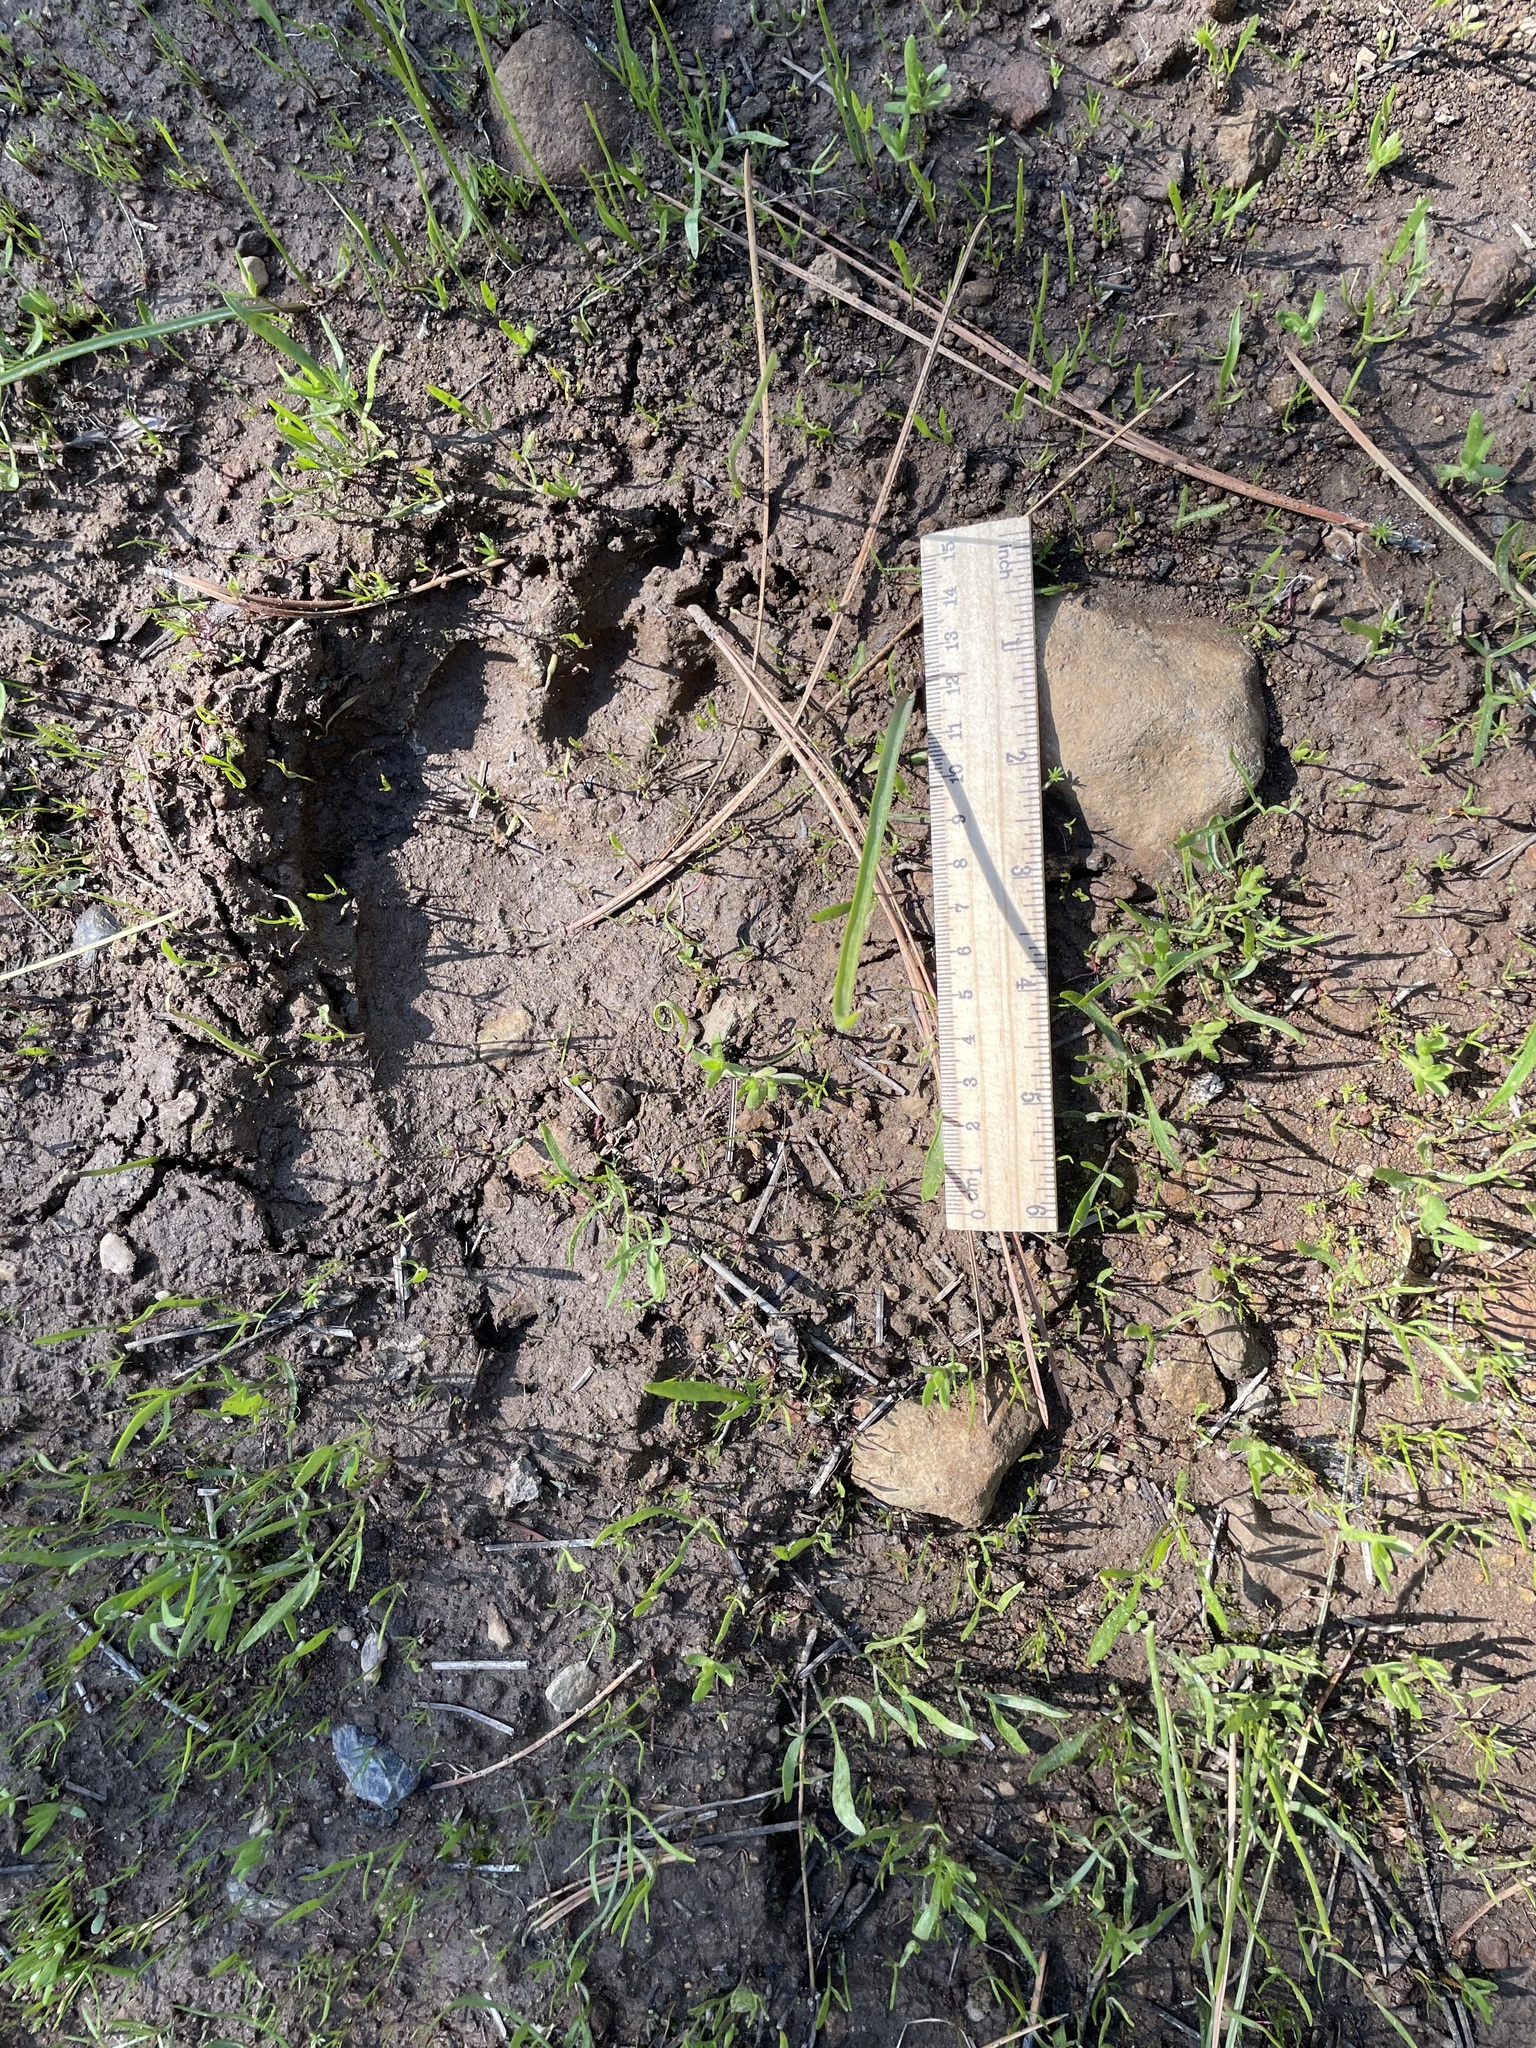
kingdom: Animalia
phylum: Chordata
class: Mammalia
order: Carnivora
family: Ursidae
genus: Ursus
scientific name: Ursus americanus
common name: American black bear
